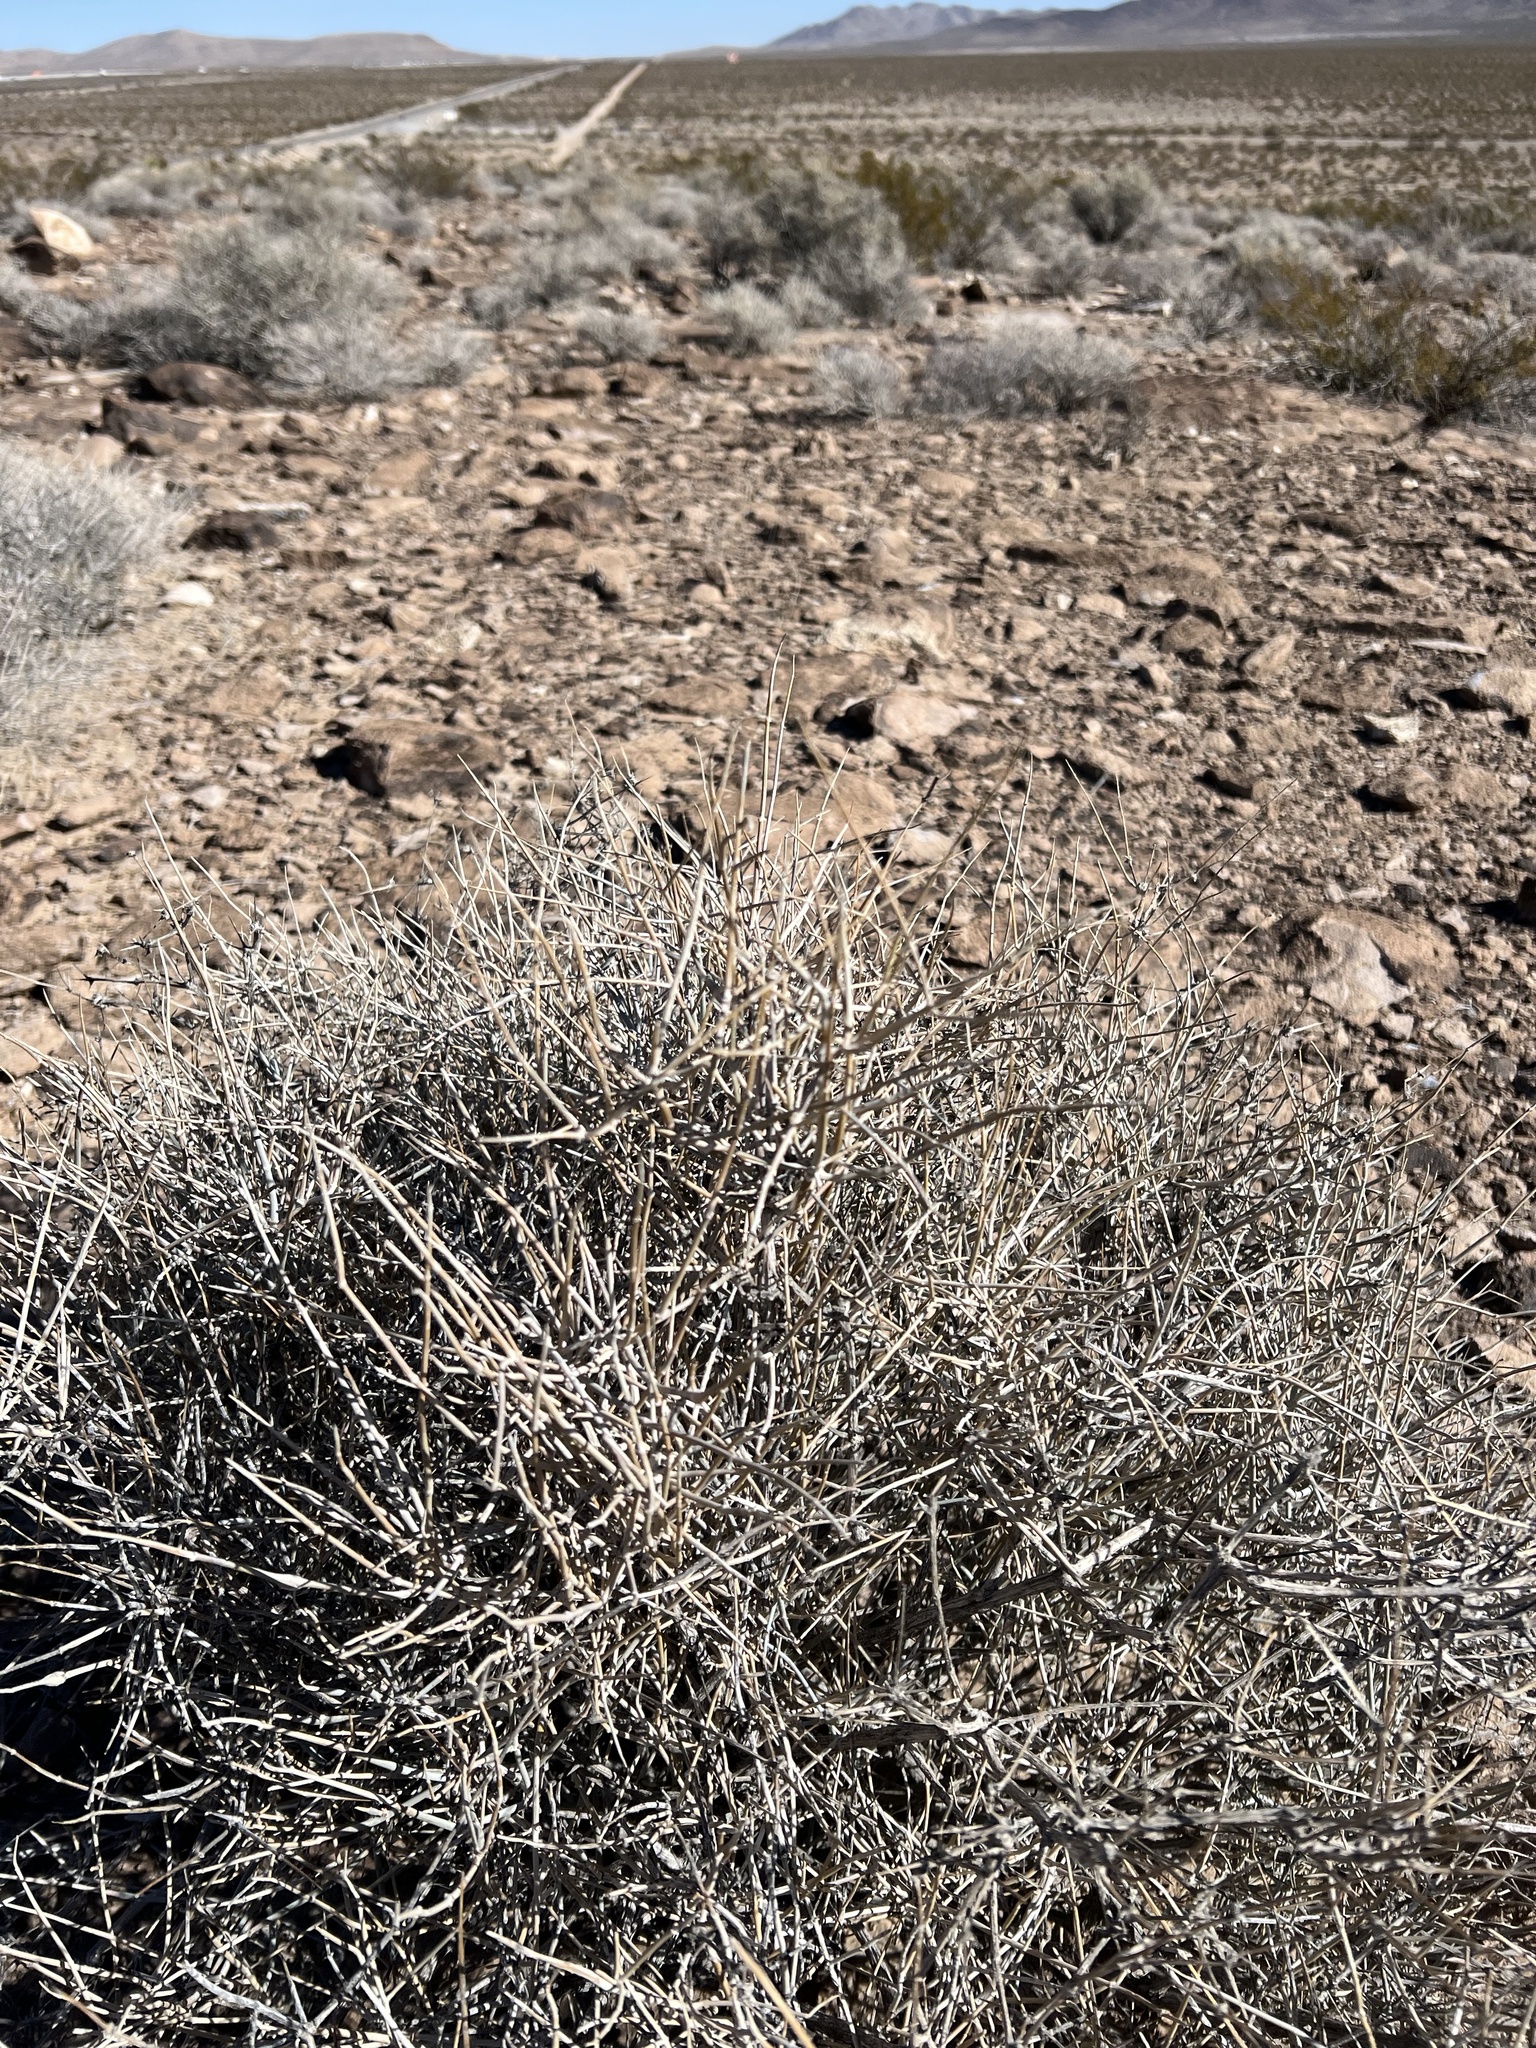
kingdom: Plantae
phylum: Tracheophyta
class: Gnetopsida
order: Ephedrales
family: Ephedraceae
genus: Ephedra
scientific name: Ephedra nevadensis
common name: Gray ephedra
